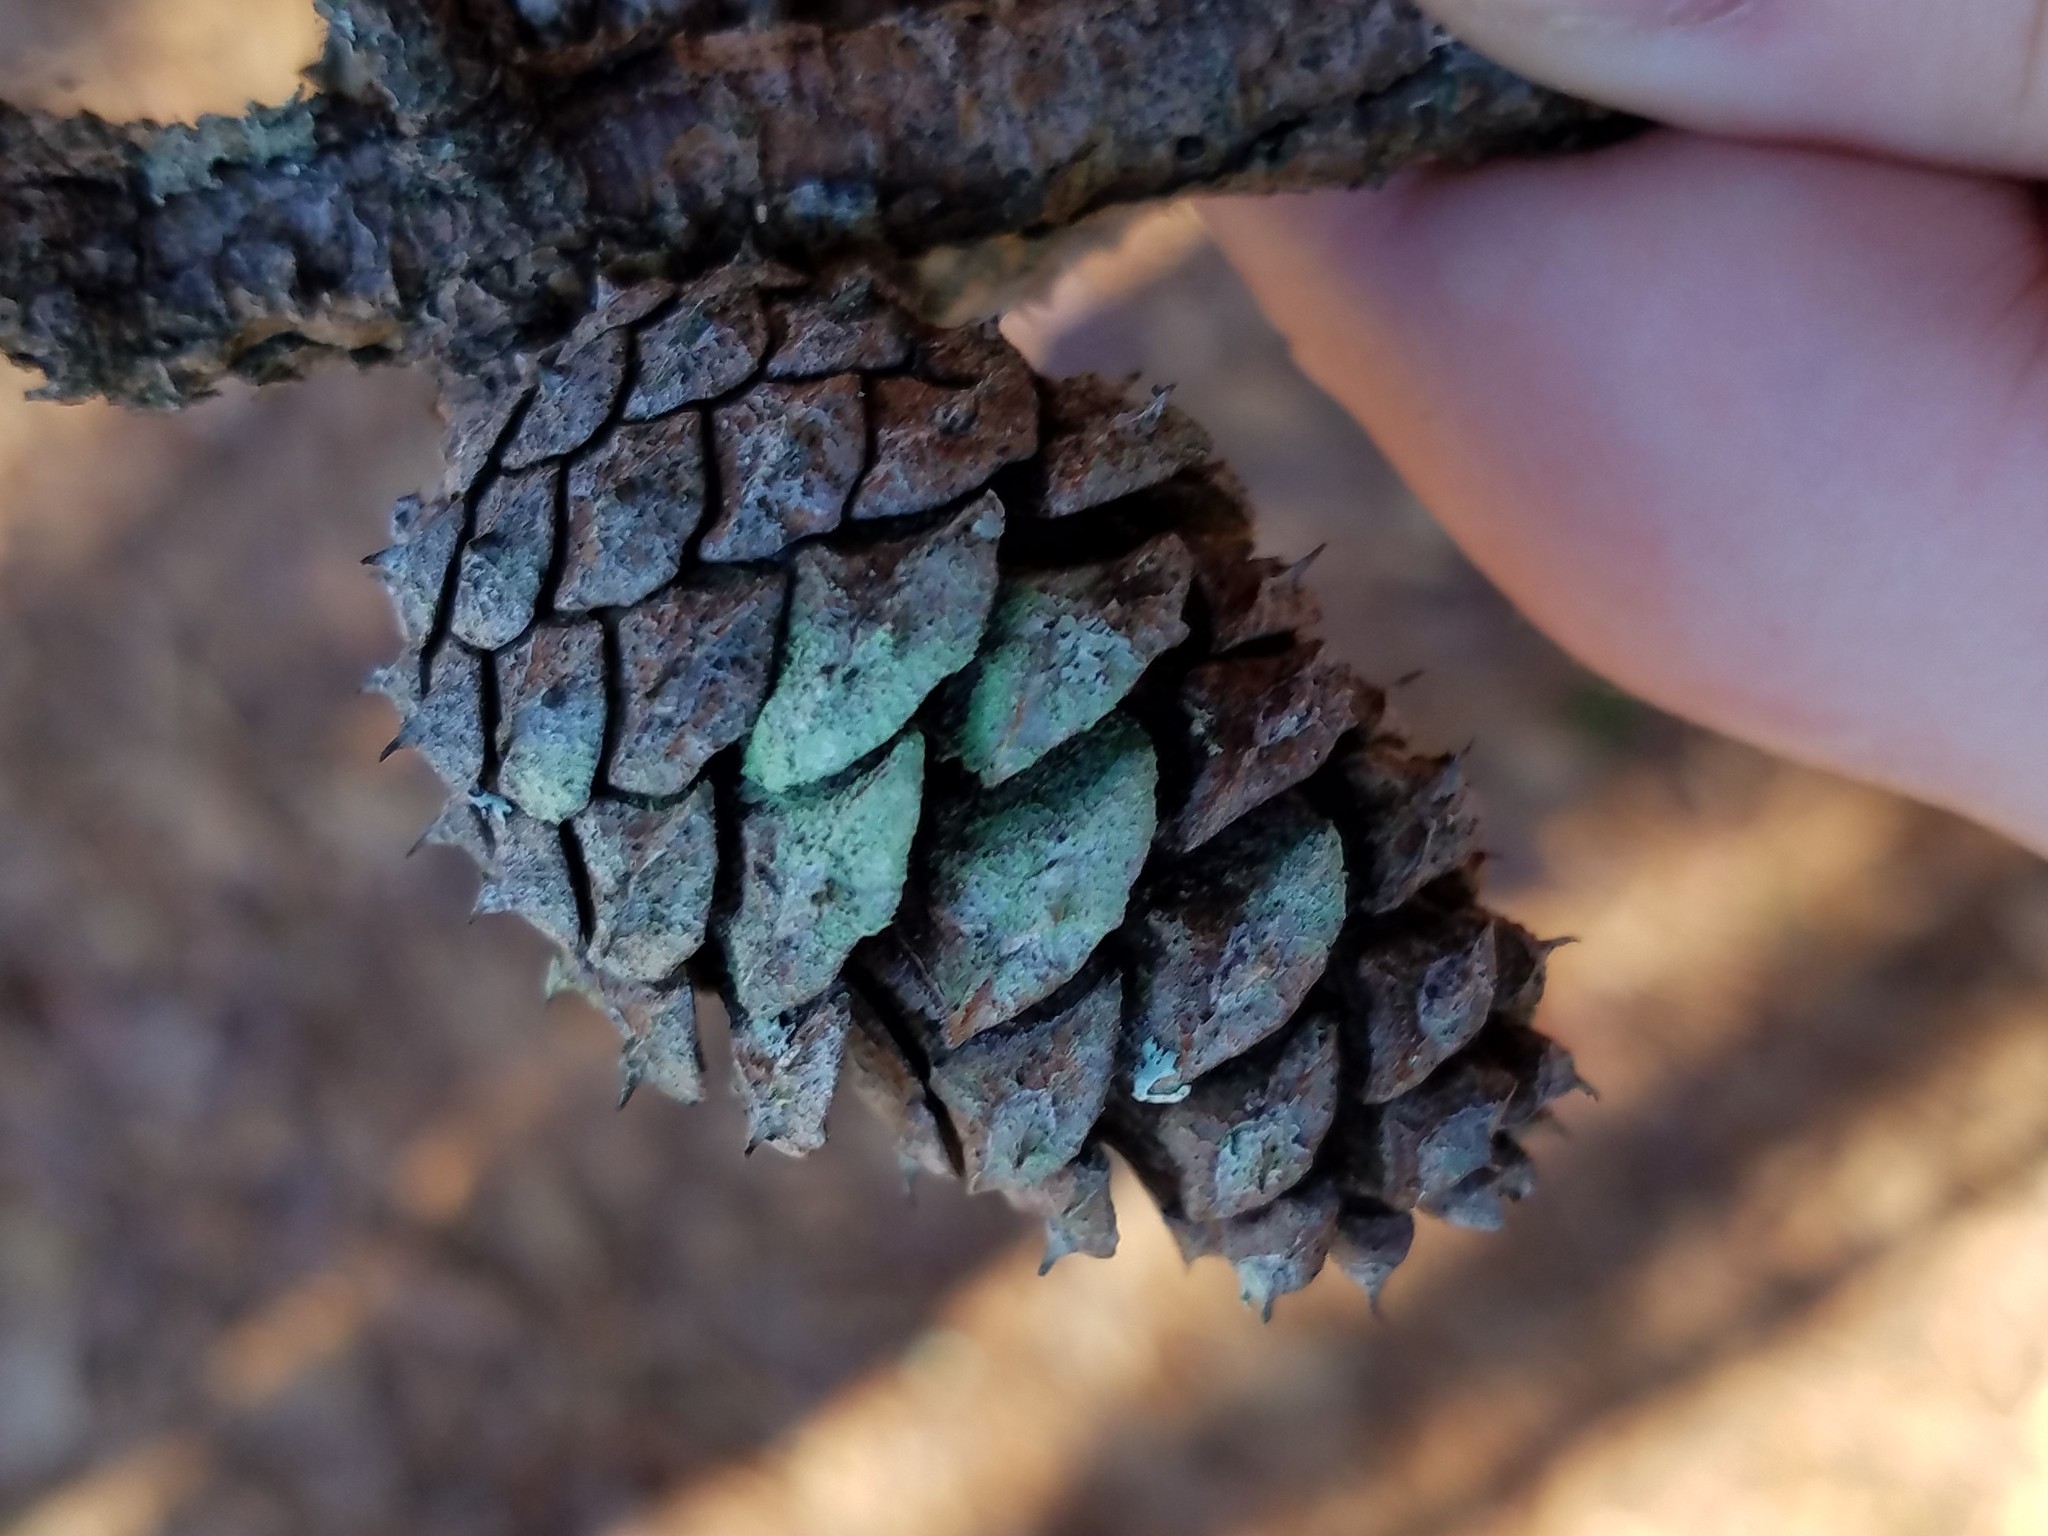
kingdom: Fungi
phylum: Ascomycota
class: Lecanoromycetes
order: Lecanorales
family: Lecanoraceae
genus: Lecanora
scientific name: Lecanora strobilina
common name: Mealy rim-lichen
